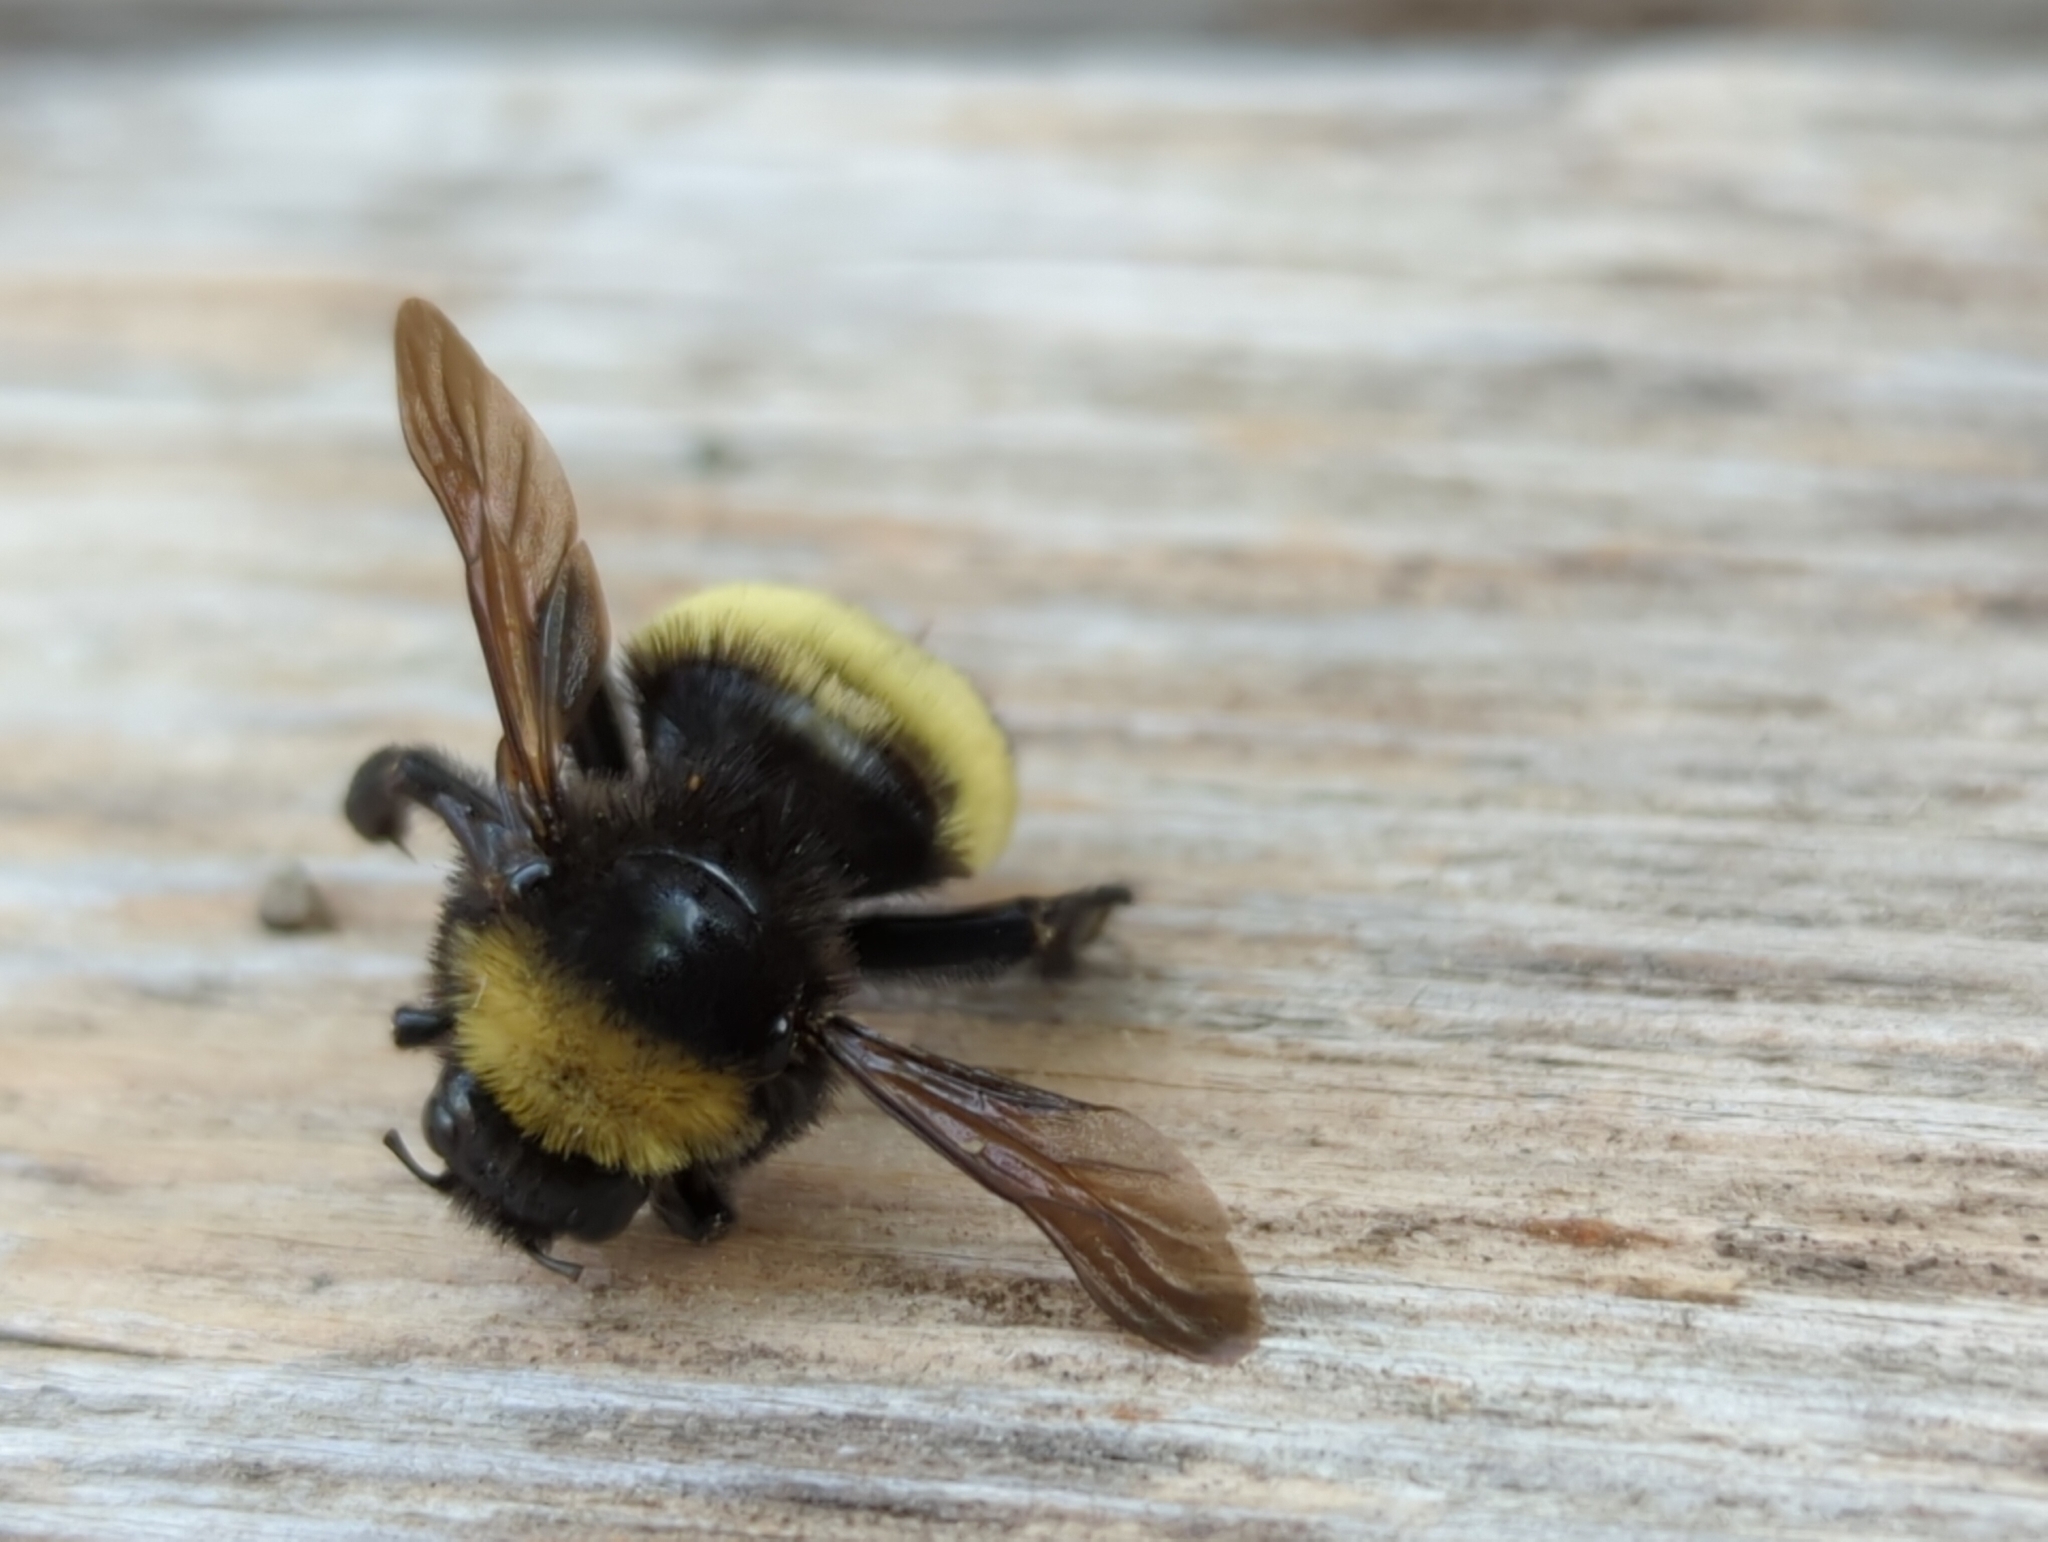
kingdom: Animalia
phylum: Arthropoda
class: Insecta
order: Hymenoptera
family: Apidae
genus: Bombus
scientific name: Bombus pensylvanicus
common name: Bumble bee
